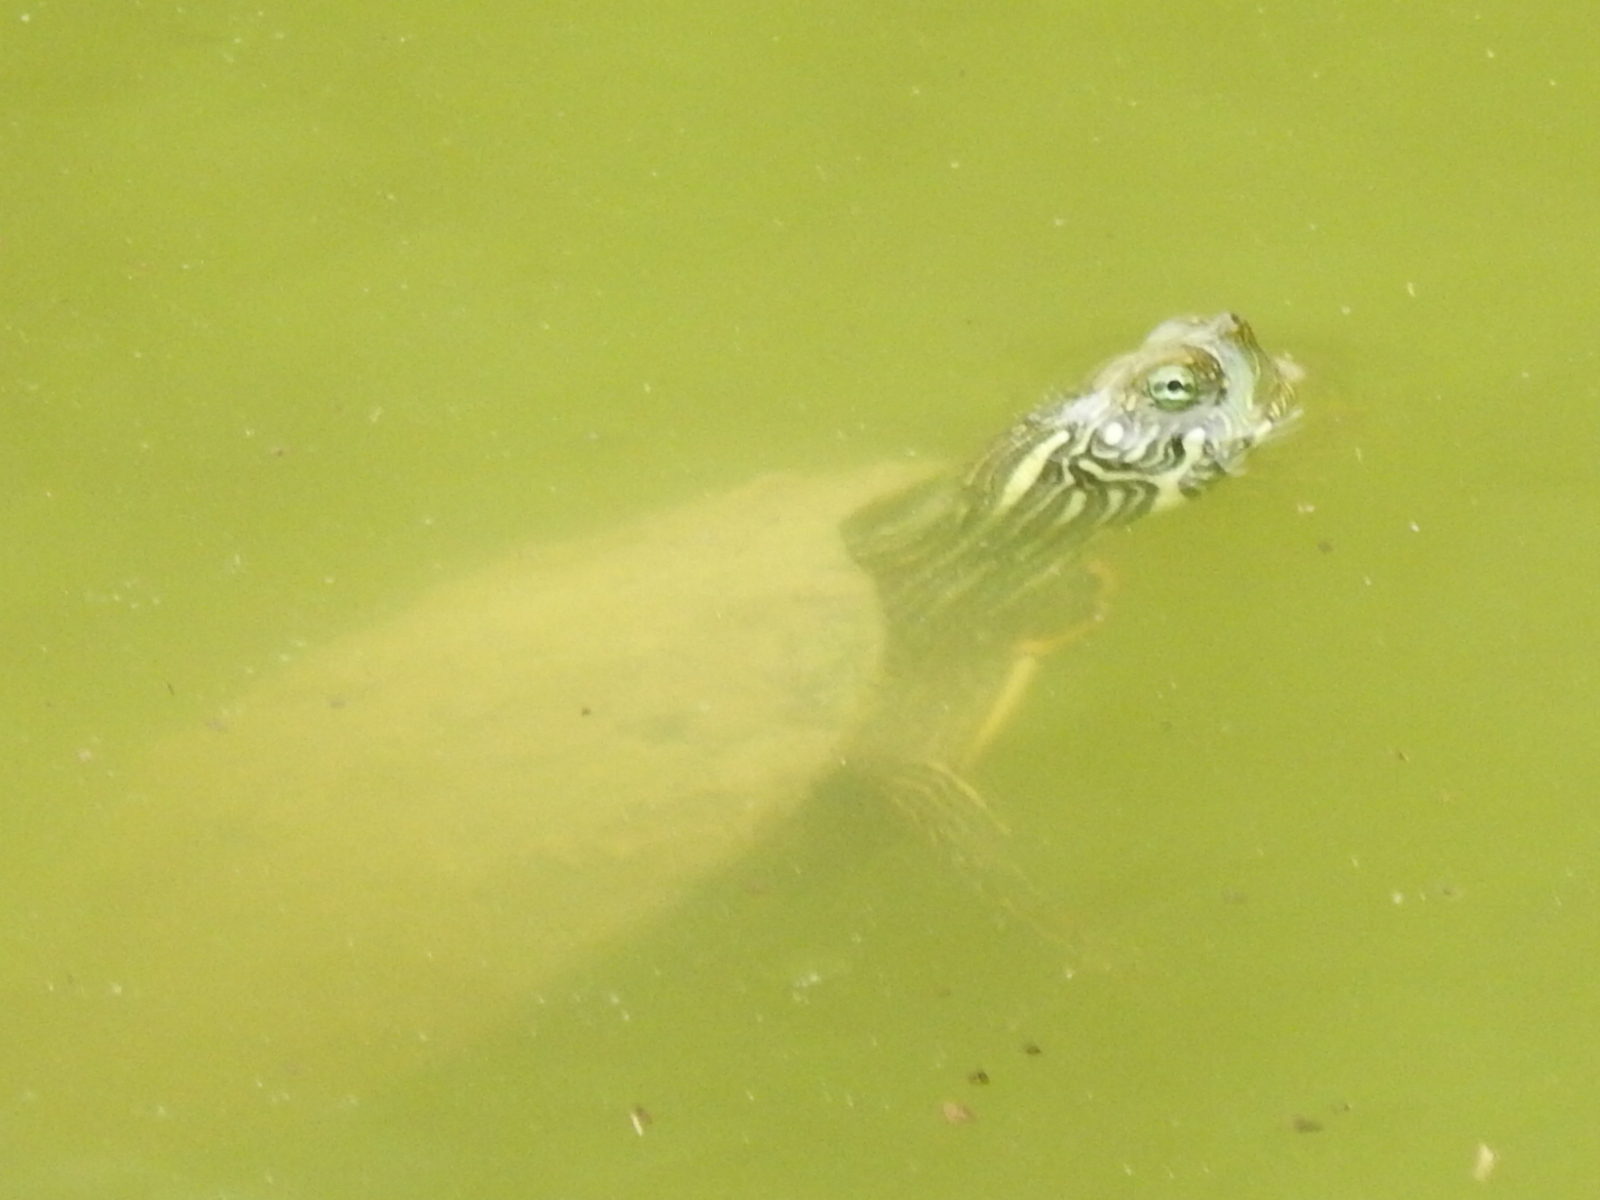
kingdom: Animalia
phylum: Chordata
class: Testudines
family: Emydidae
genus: Pseudemys
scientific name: Pseudemys texana
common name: Texas river cooter
